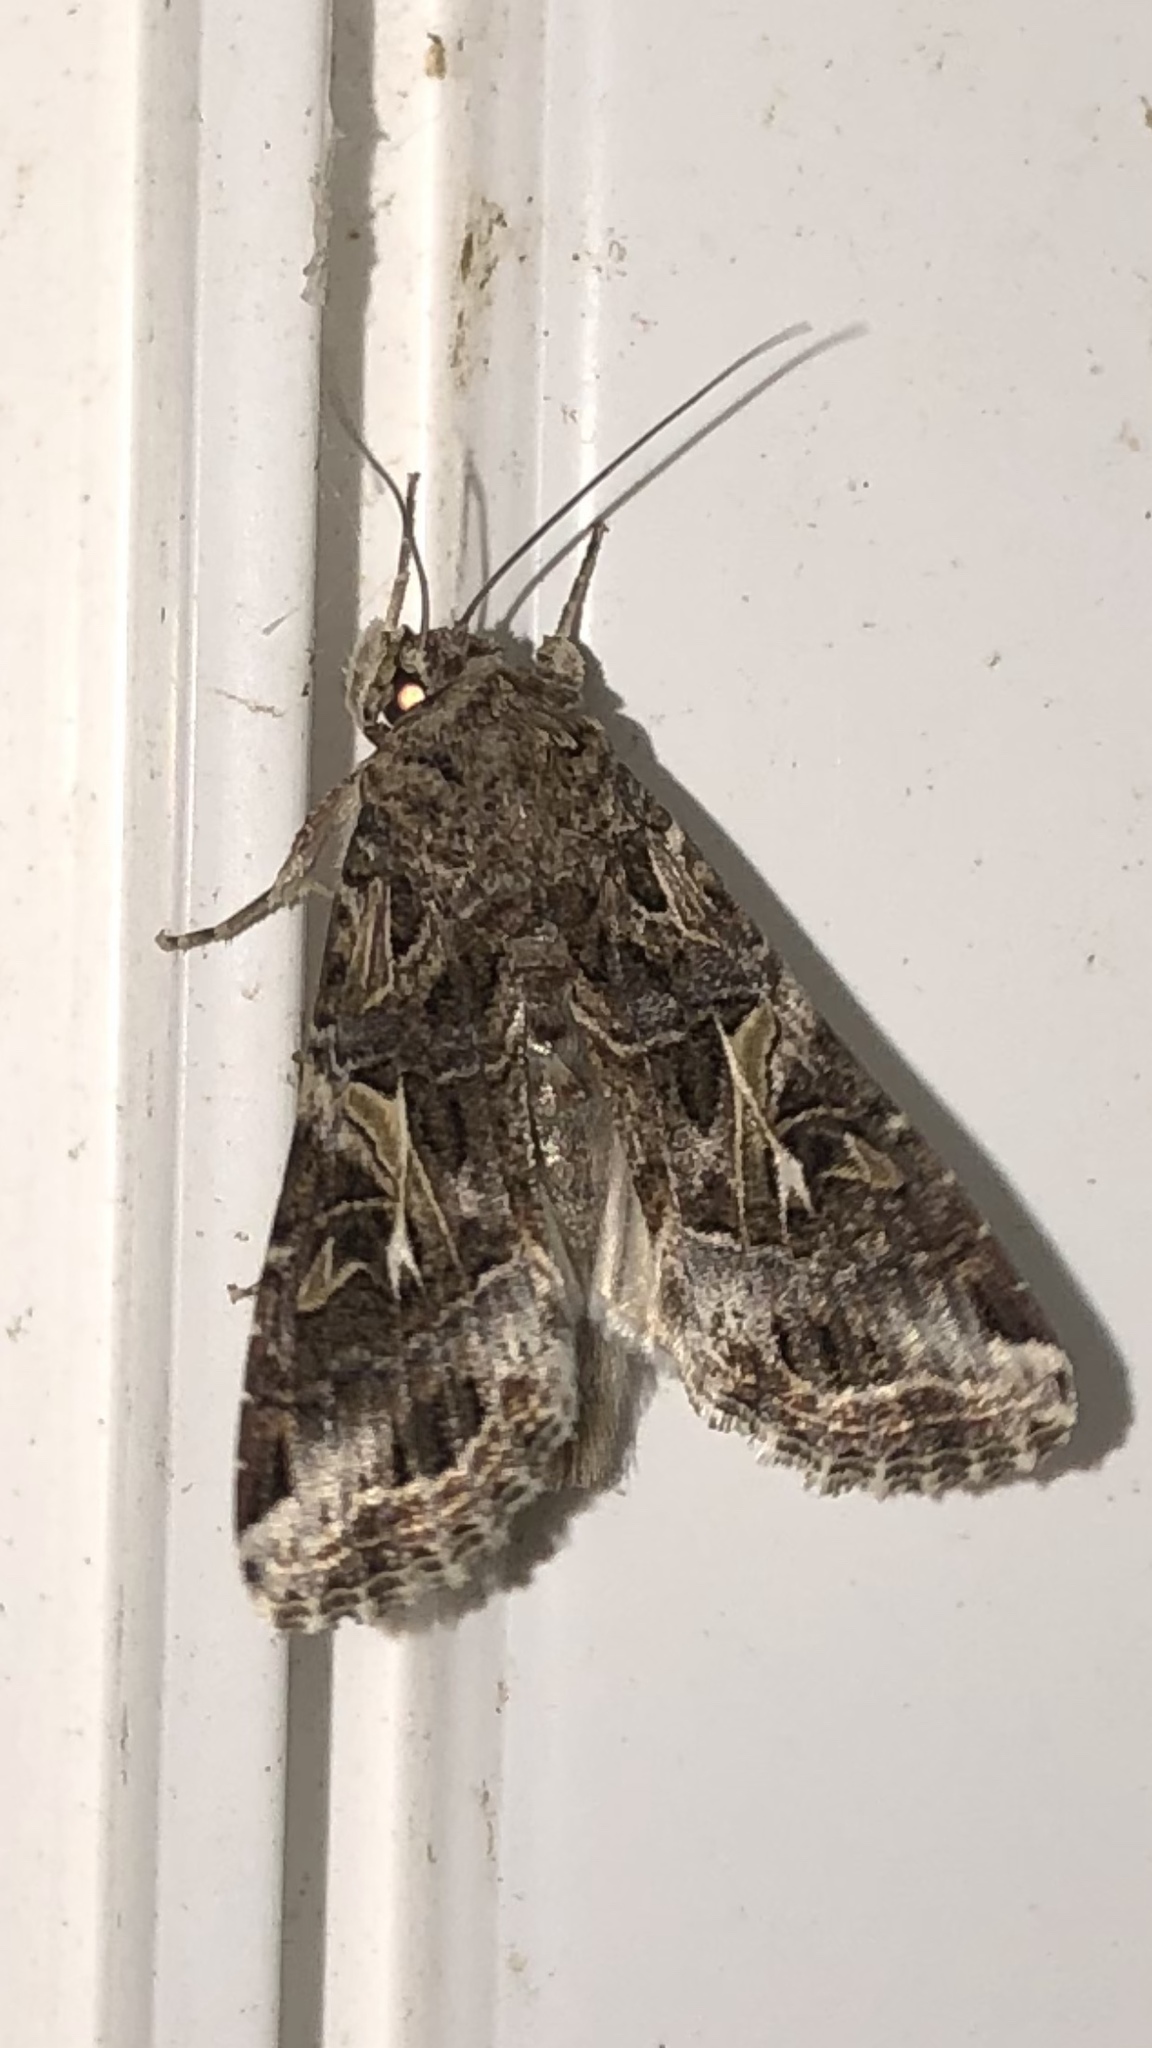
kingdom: Animalia
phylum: Arthropoda
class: Insecta
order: Lepidoptera
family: Noctuidae
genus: Spodoptera
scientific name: Spodoptera ornithogalli
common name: Yellow-striped armyworm
